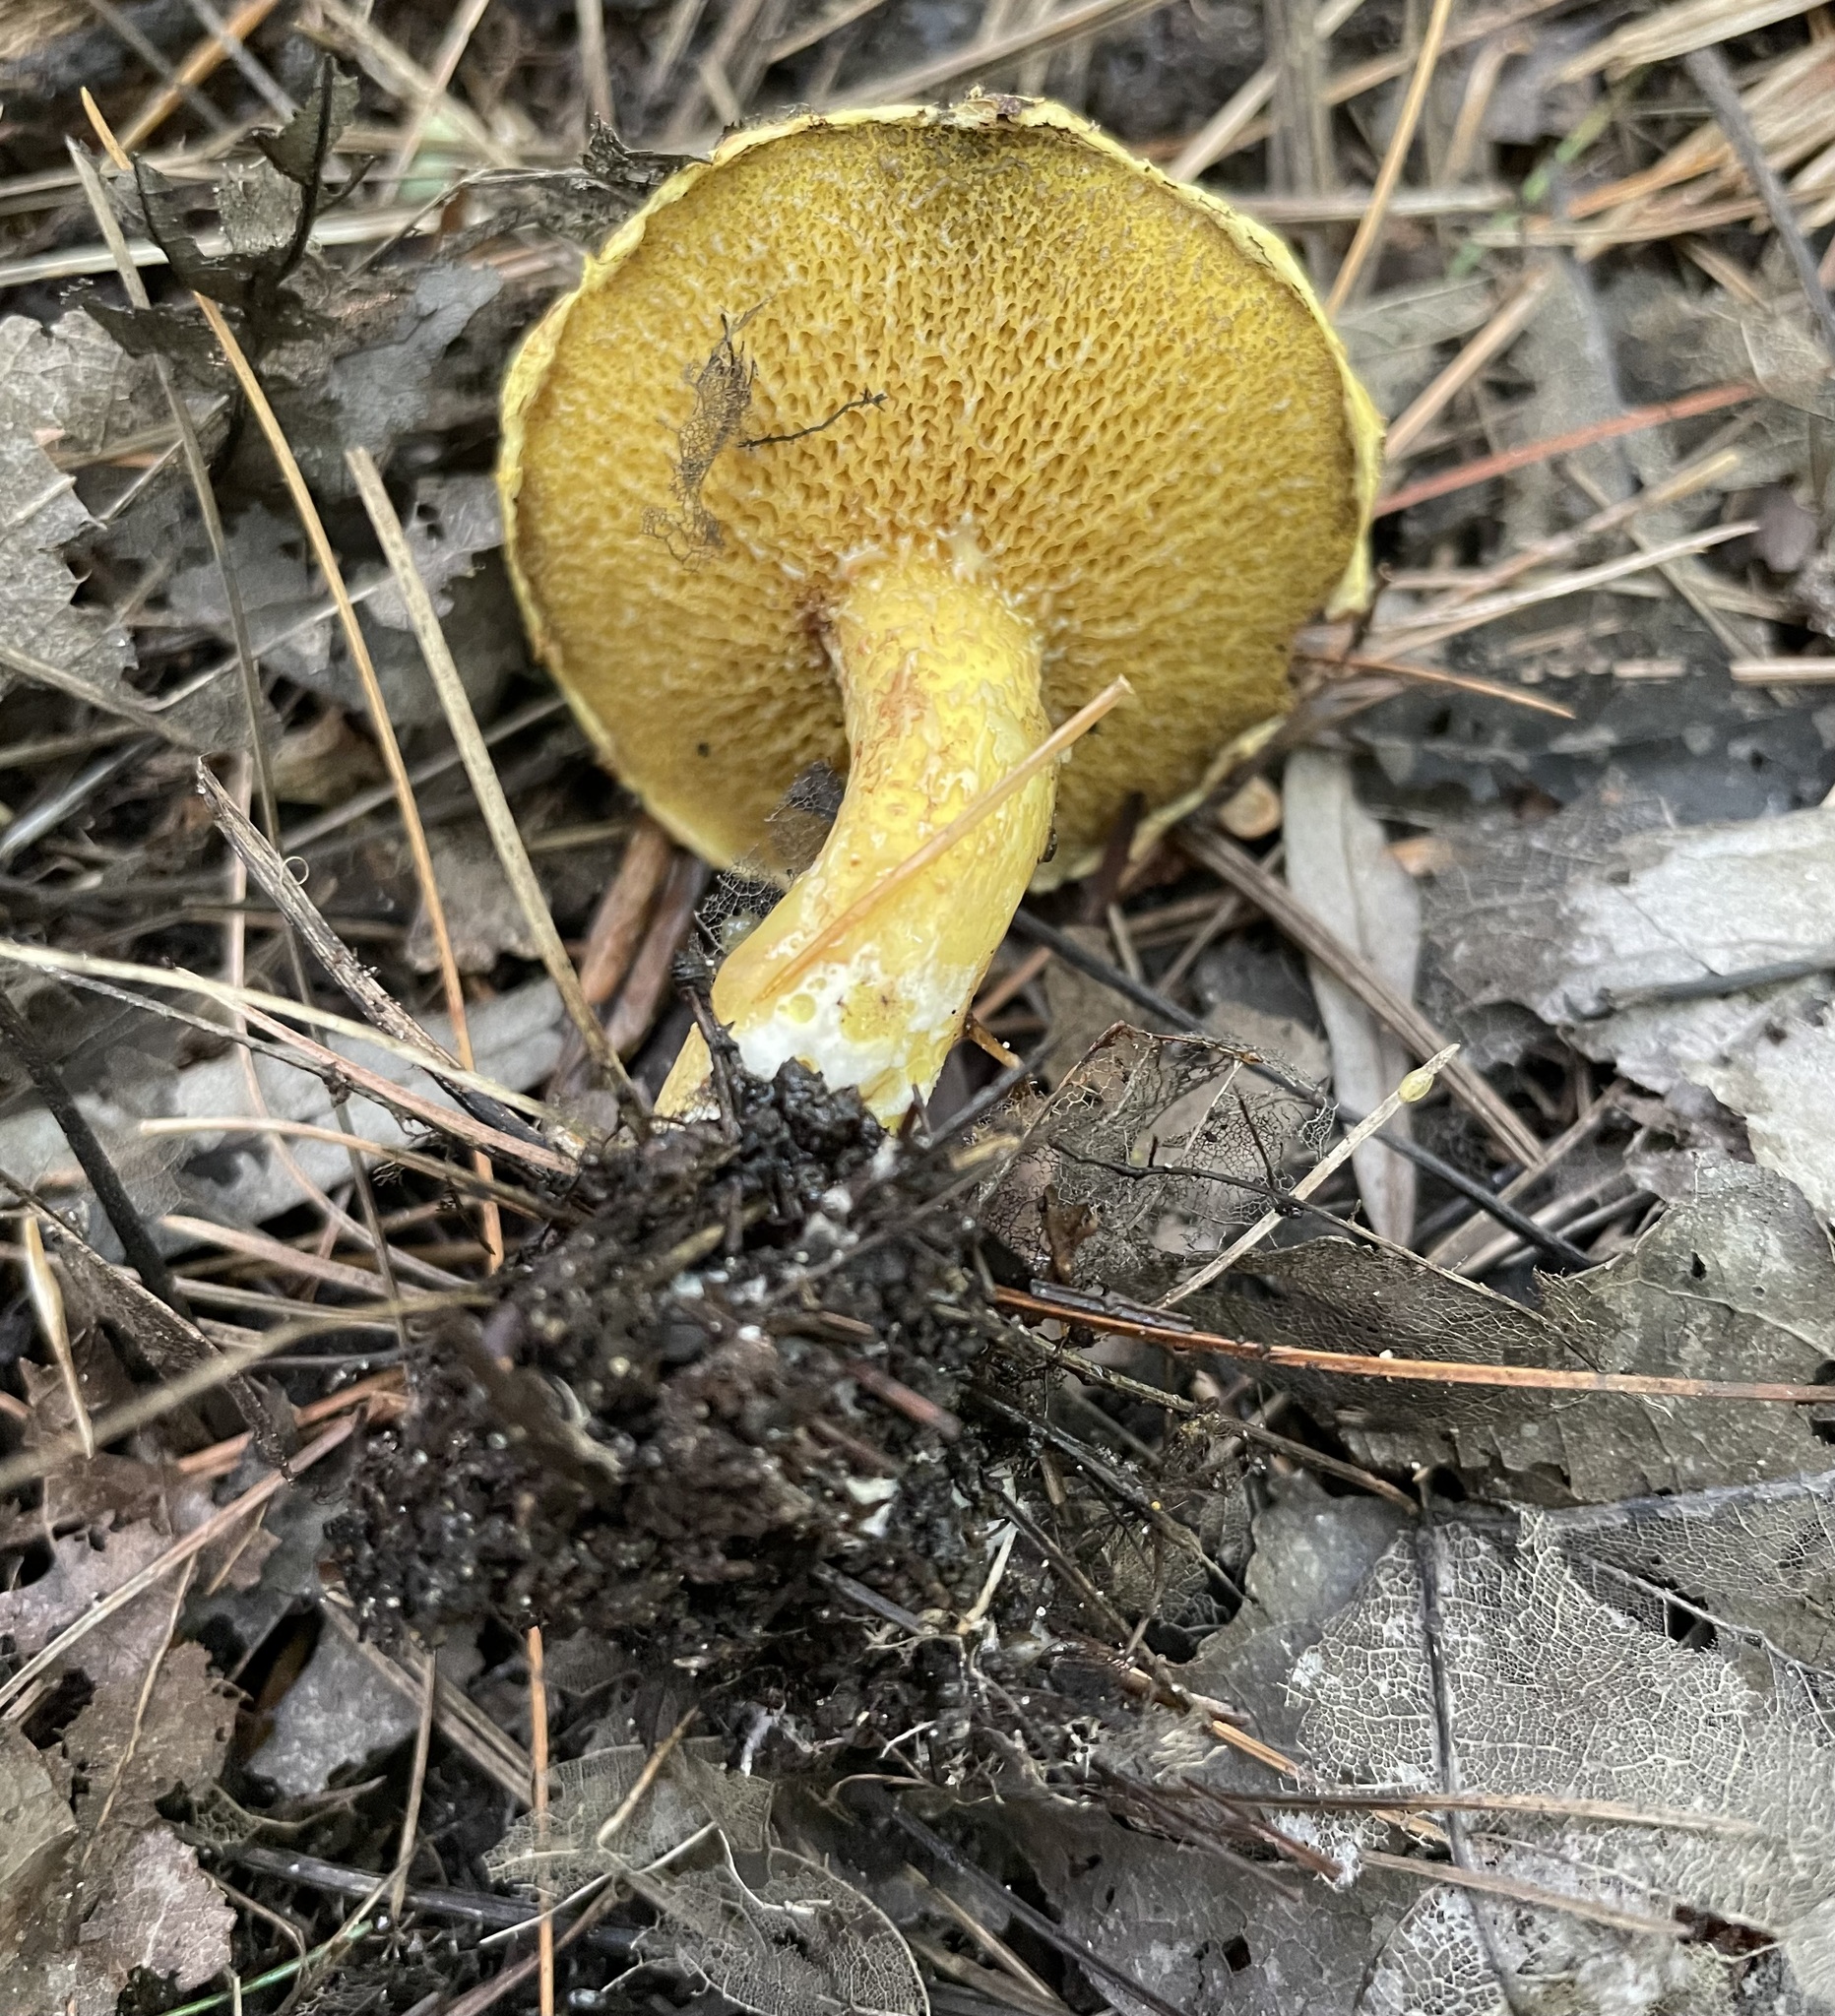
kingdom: Fungi
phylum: Basidiomycota
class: Agaricomycetes
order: Boletales
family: Suillaceae
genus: Suillus
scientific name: Suillus americanus
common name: Chicken fat mushroom
